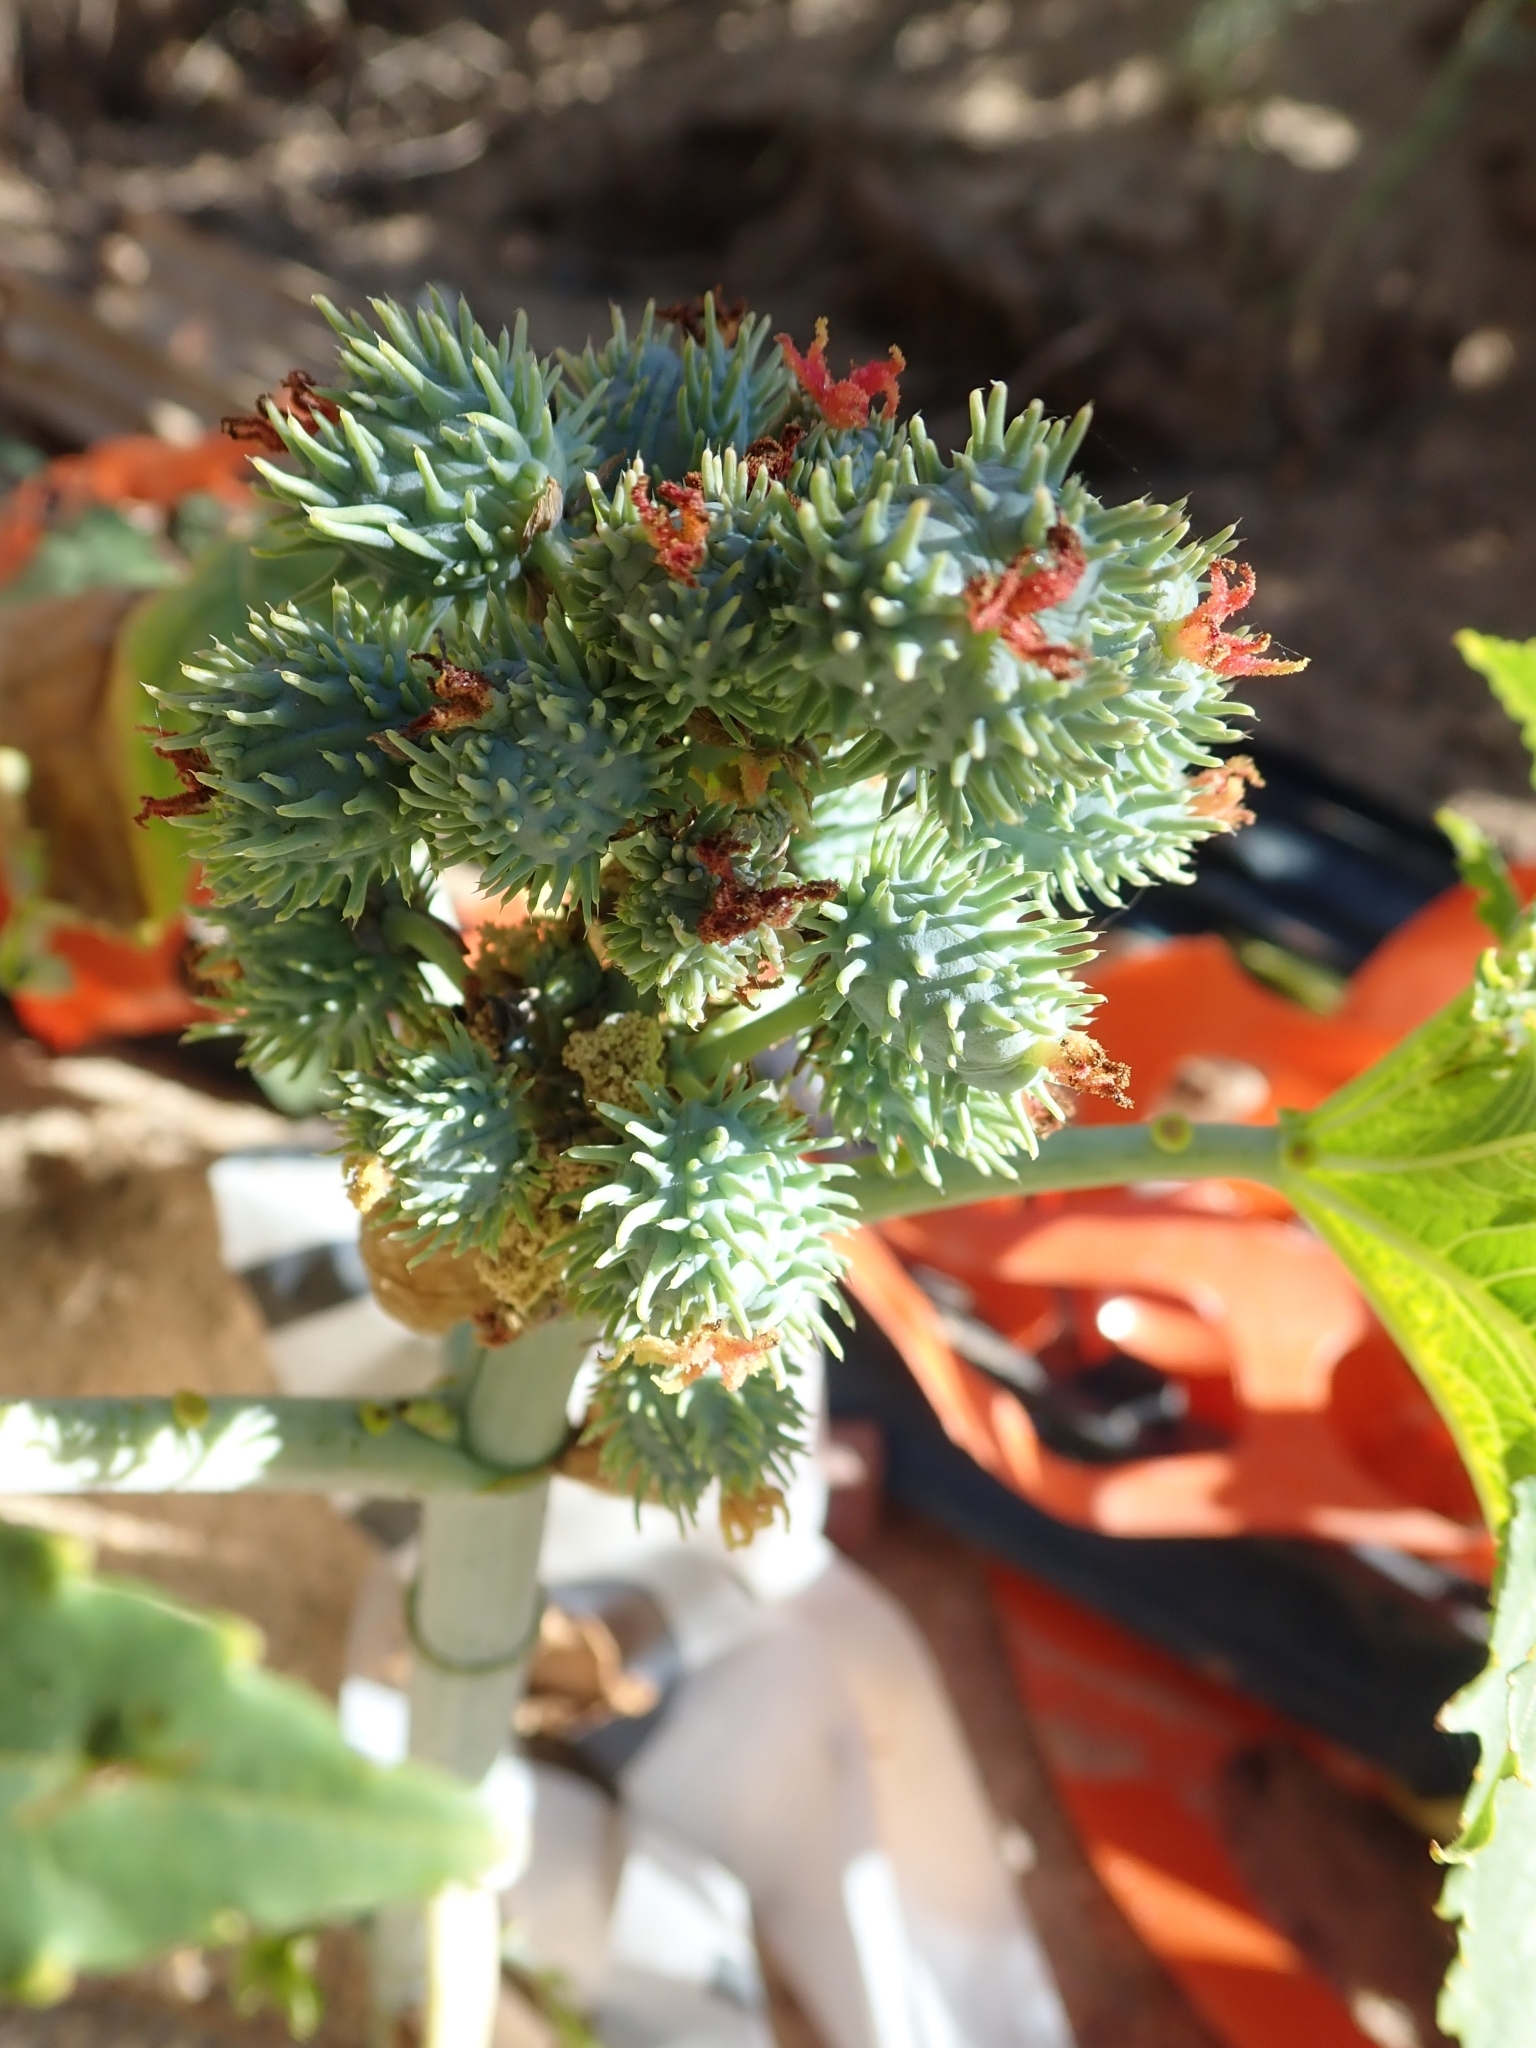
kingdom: Plantae
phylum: Tracheophyta
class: Magnoliopsida
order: Malpighiales
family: Euphorbiaceae
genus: Ricinus
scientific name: Ricinus communis
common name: Castor-oil-plant
